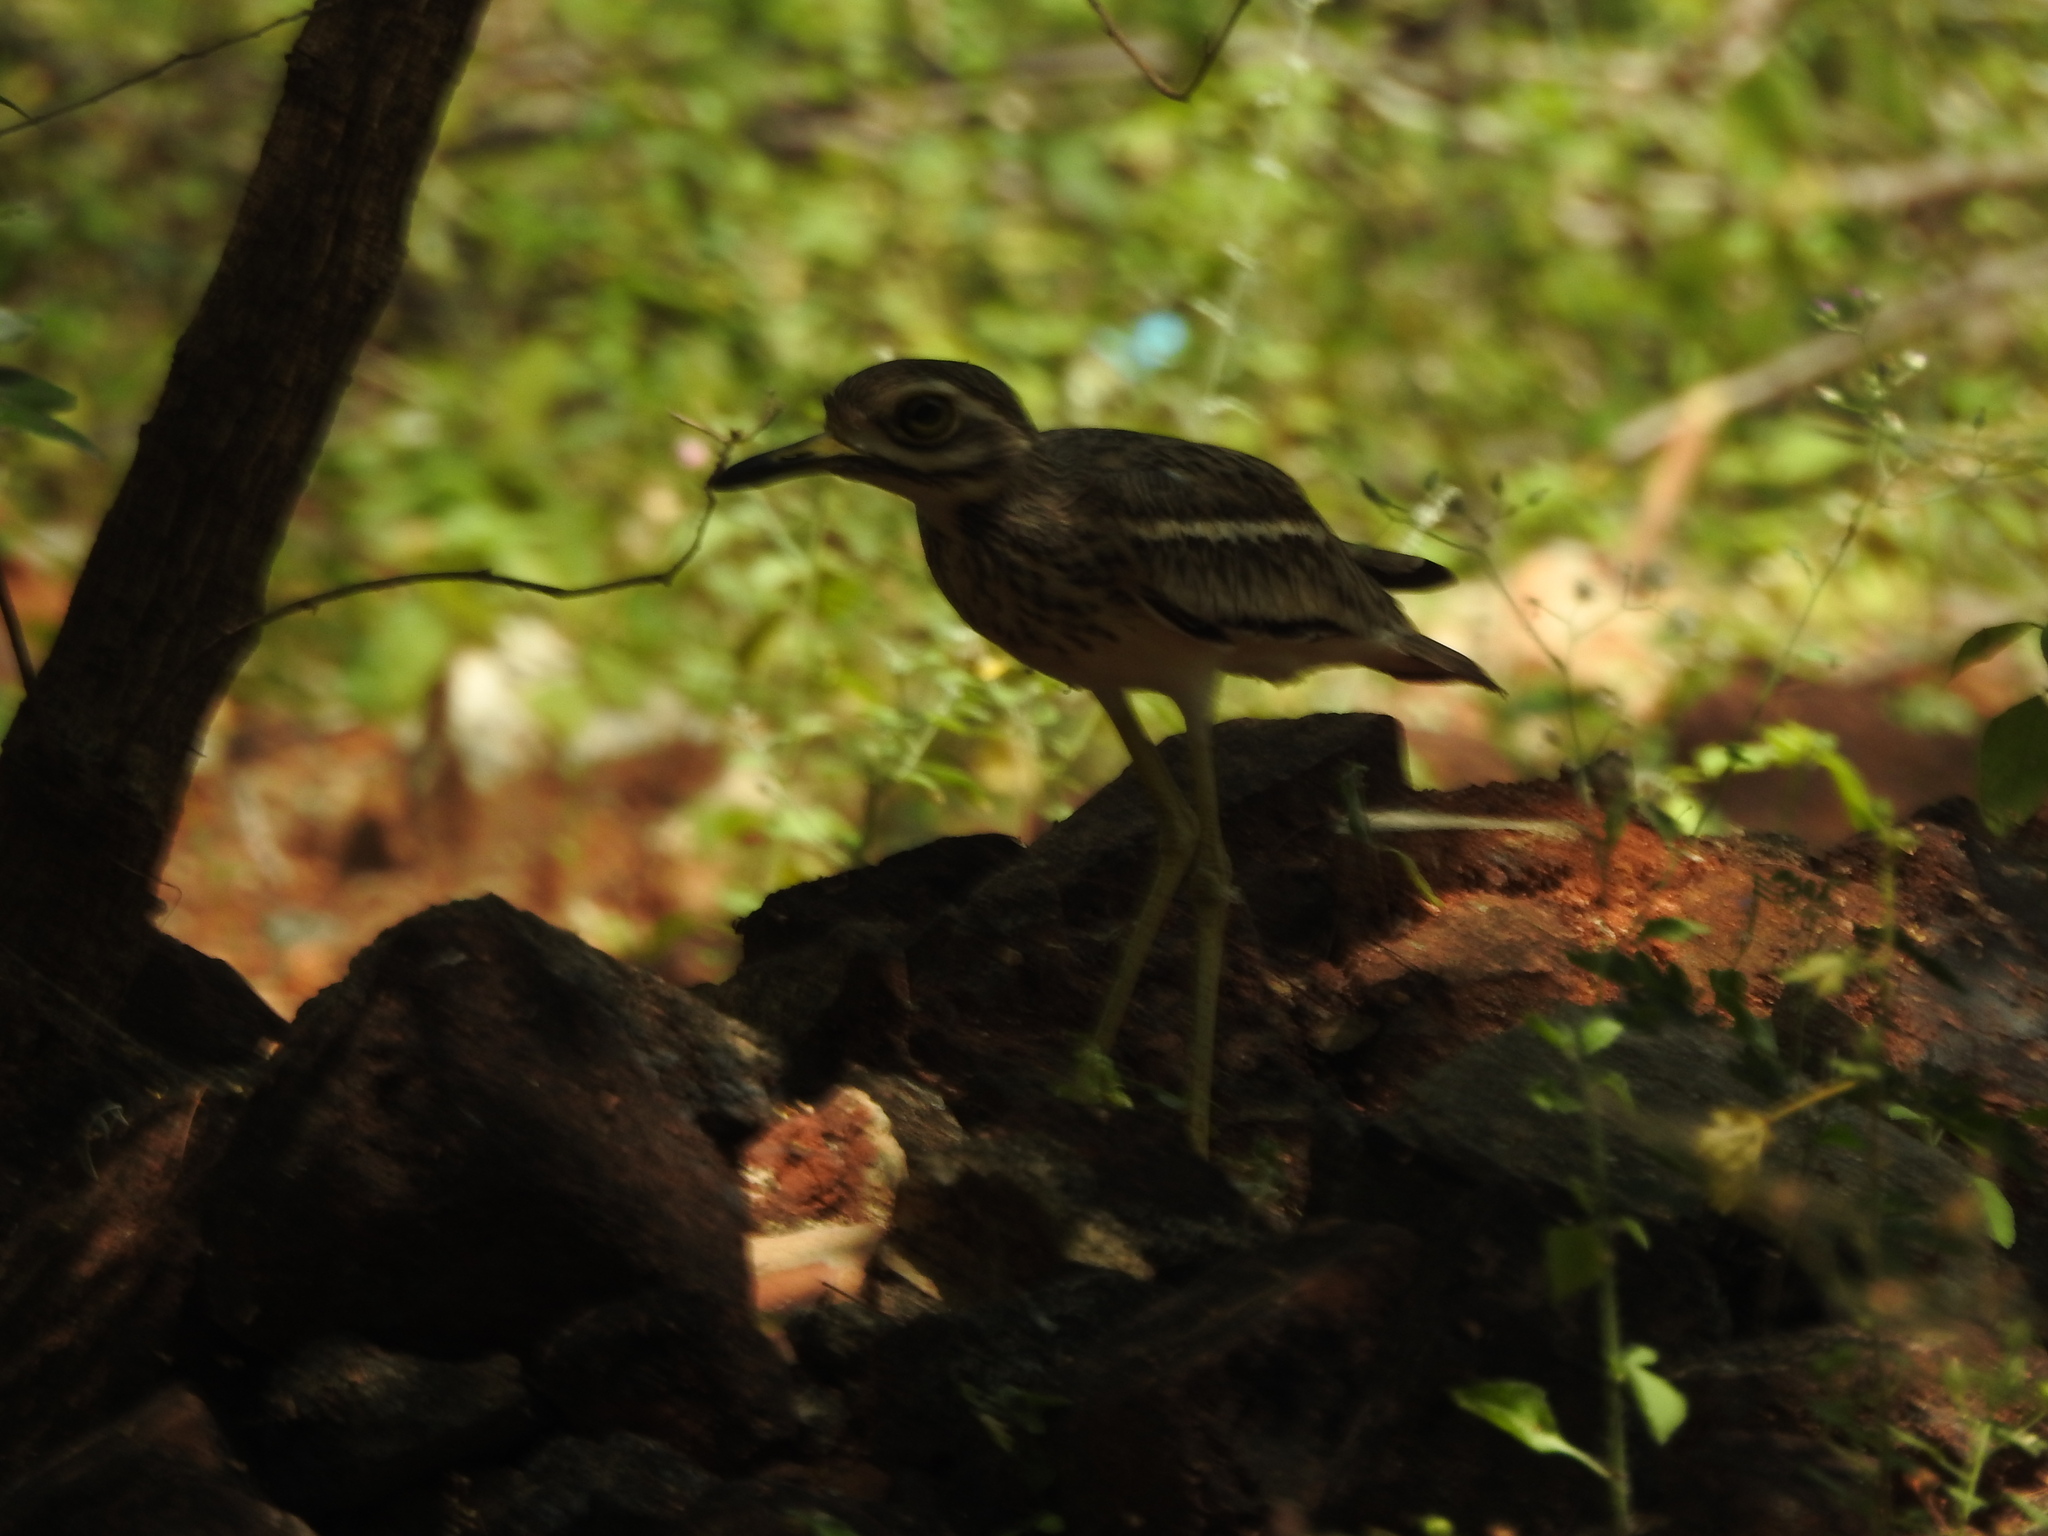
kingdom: Animalia
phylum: Chordata
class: Aves
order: Charadriiformes
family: Burhinidae
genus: Burhinus
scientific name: Burhinus indicus
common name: Indian thick-knee
